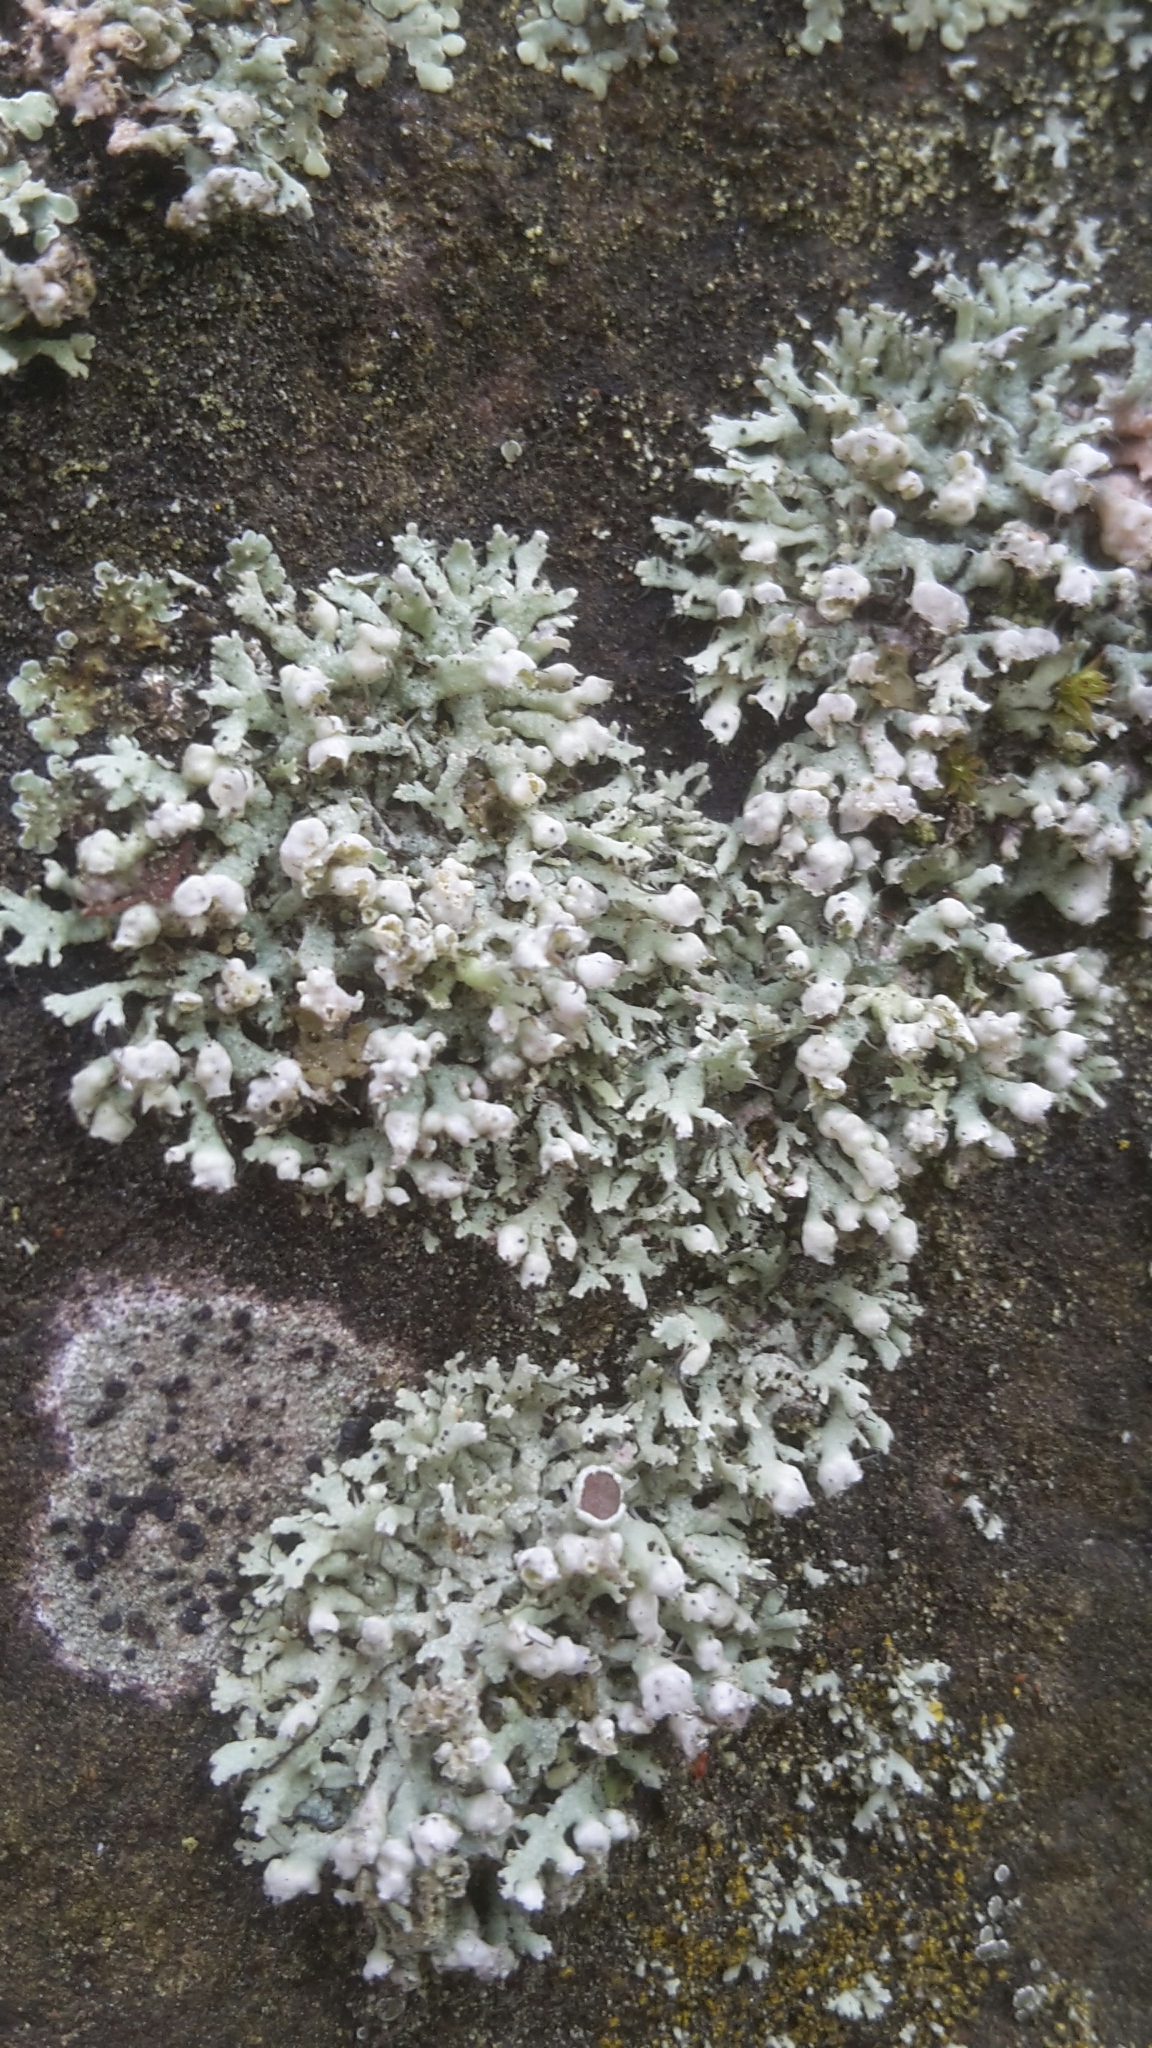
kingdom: Fungi
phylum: Ascomycota
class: Lecanoromycetes
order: Caliciales
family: Physciaceae
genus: Physcia
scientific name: Physcia adscendens
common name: Hooded rosette lichen
